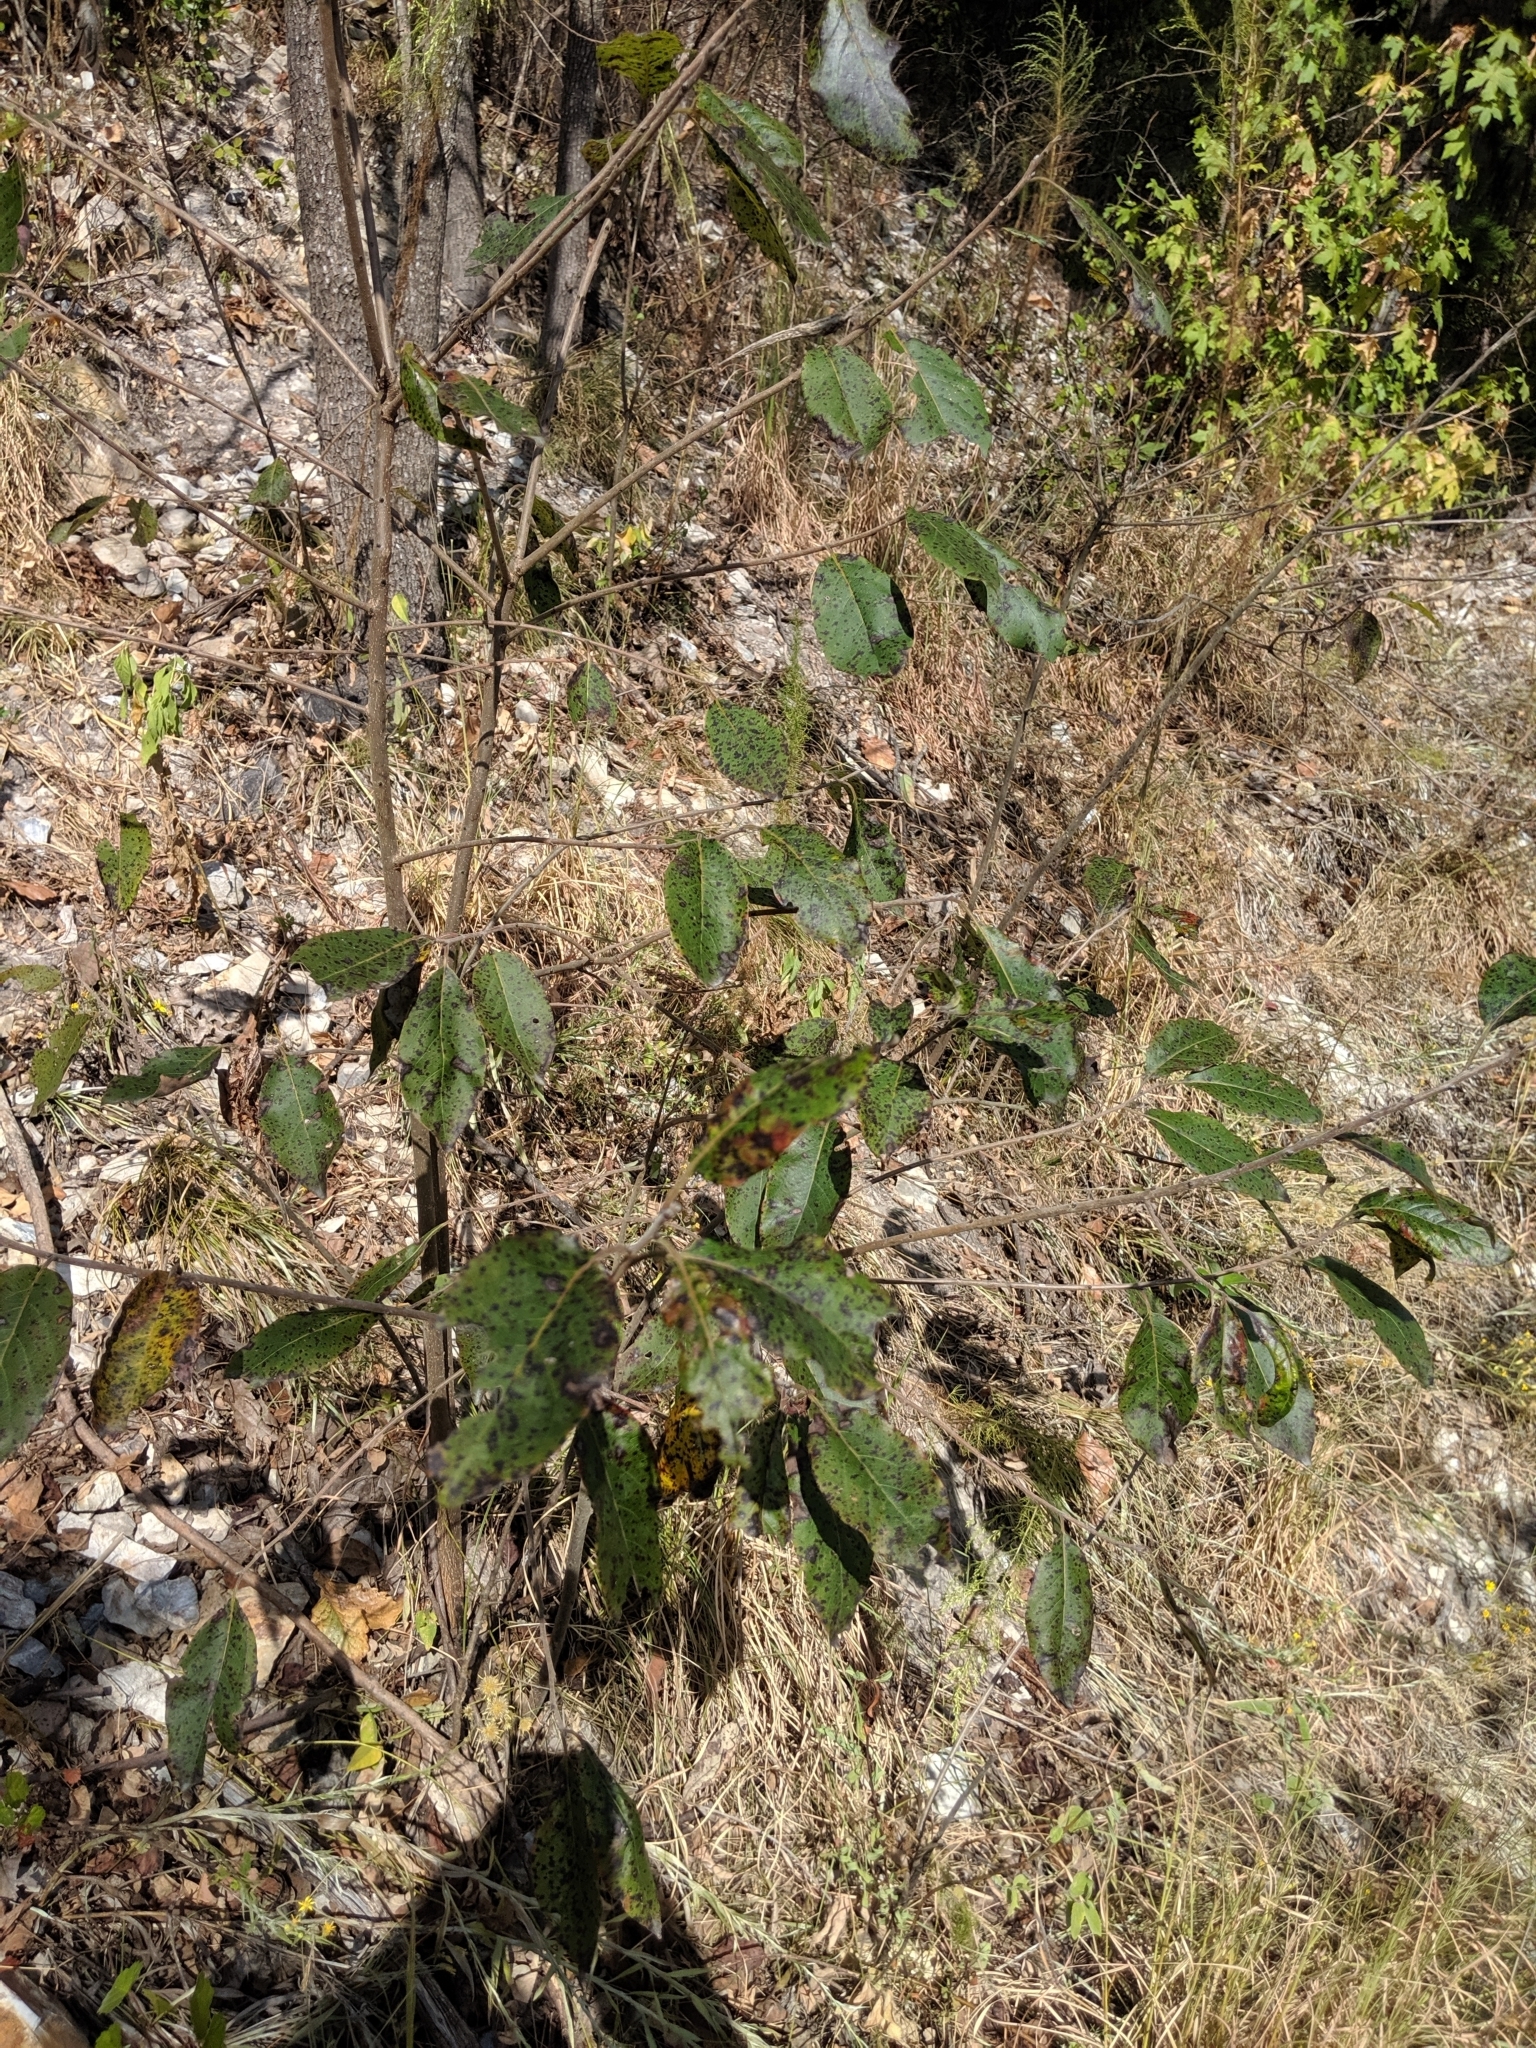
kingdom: Plantae
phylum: Tracheophyta
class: Magnoliopsida
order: Ericales
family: Ebenaceae
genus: Diospyros
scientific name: Diospyros virginiana
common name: Persimmon
